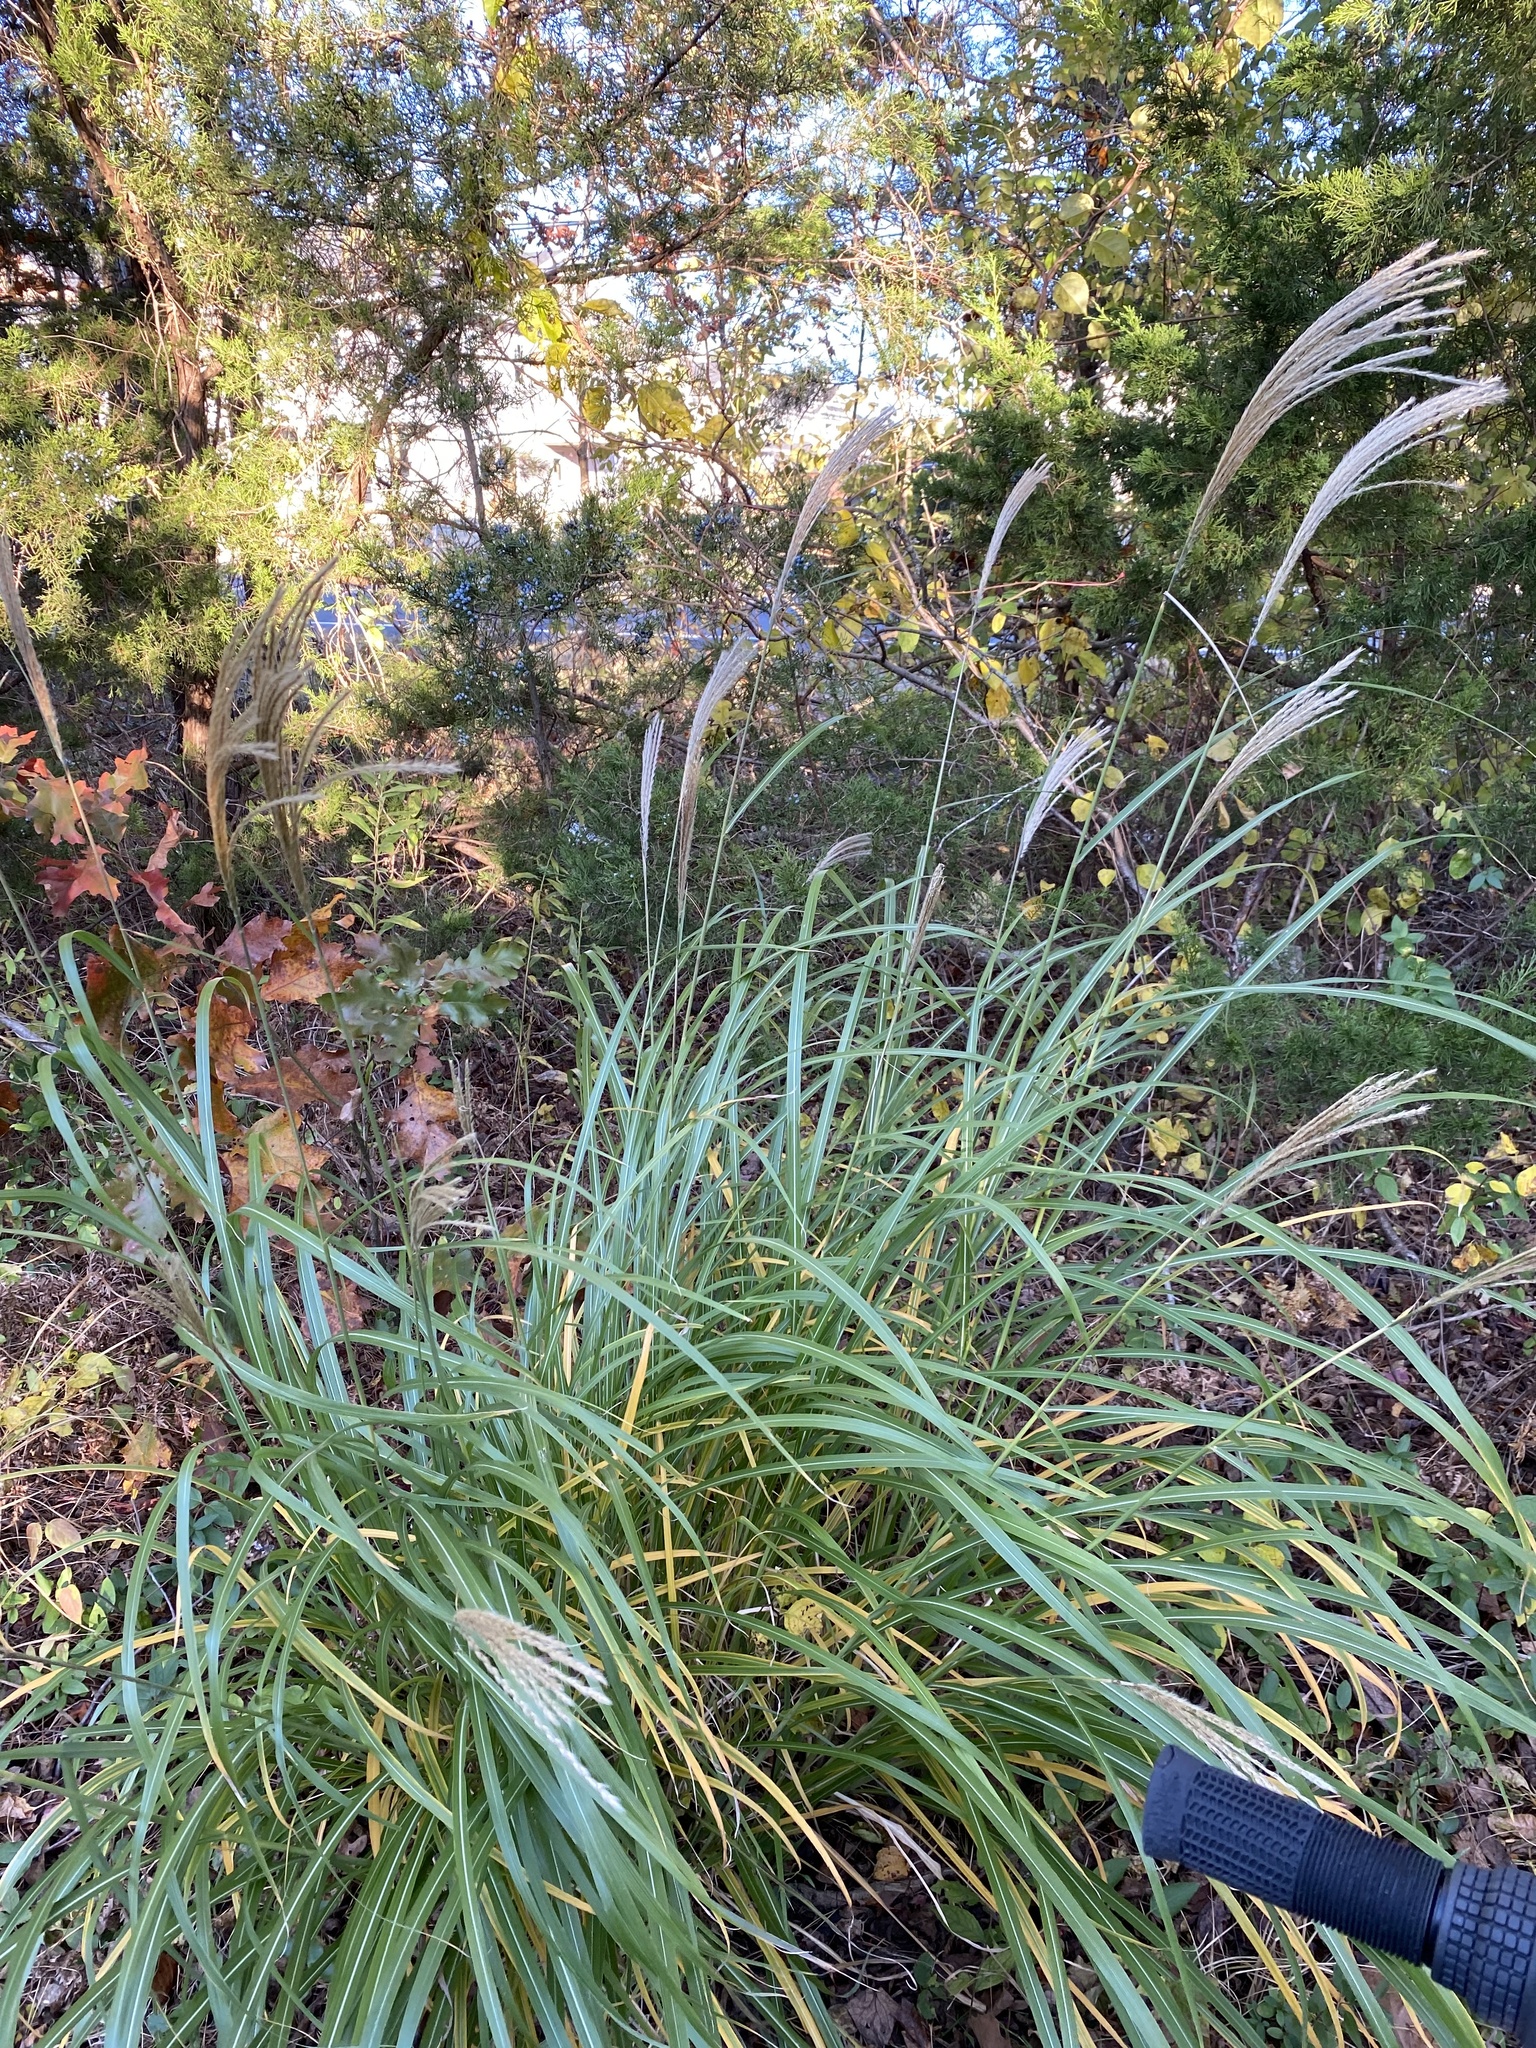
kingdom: Plantae
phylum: Tracheophyta
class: Liliopsida
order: Poales
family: Poaceae
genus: Miscanthus
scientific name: Miscanthus sinensis
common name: Chinese silvergrass
